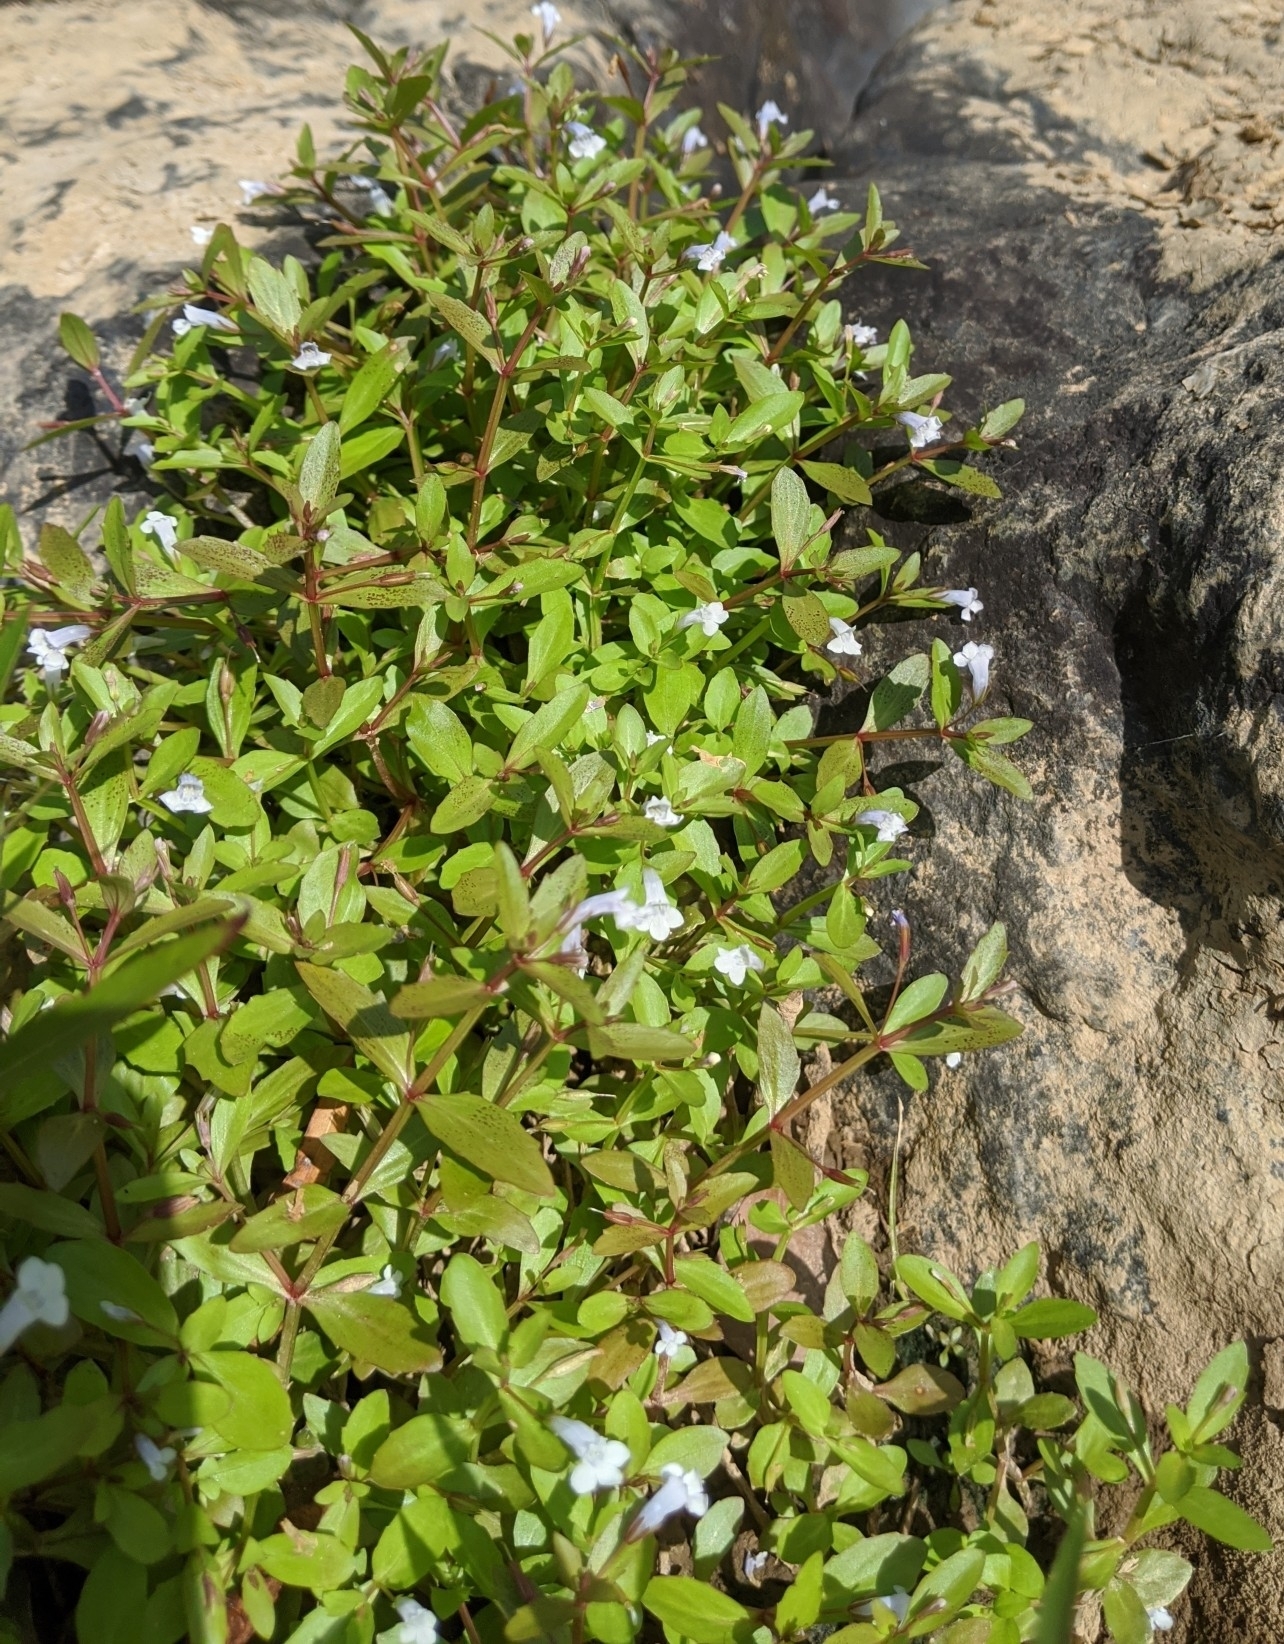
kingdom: Plantae
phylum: Tracheophyta
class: Magnoliopsida
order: Lamiales
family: Linderniaceae
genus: Lindernia
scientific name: Lindernia dubia
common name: Annual false pimpernel
